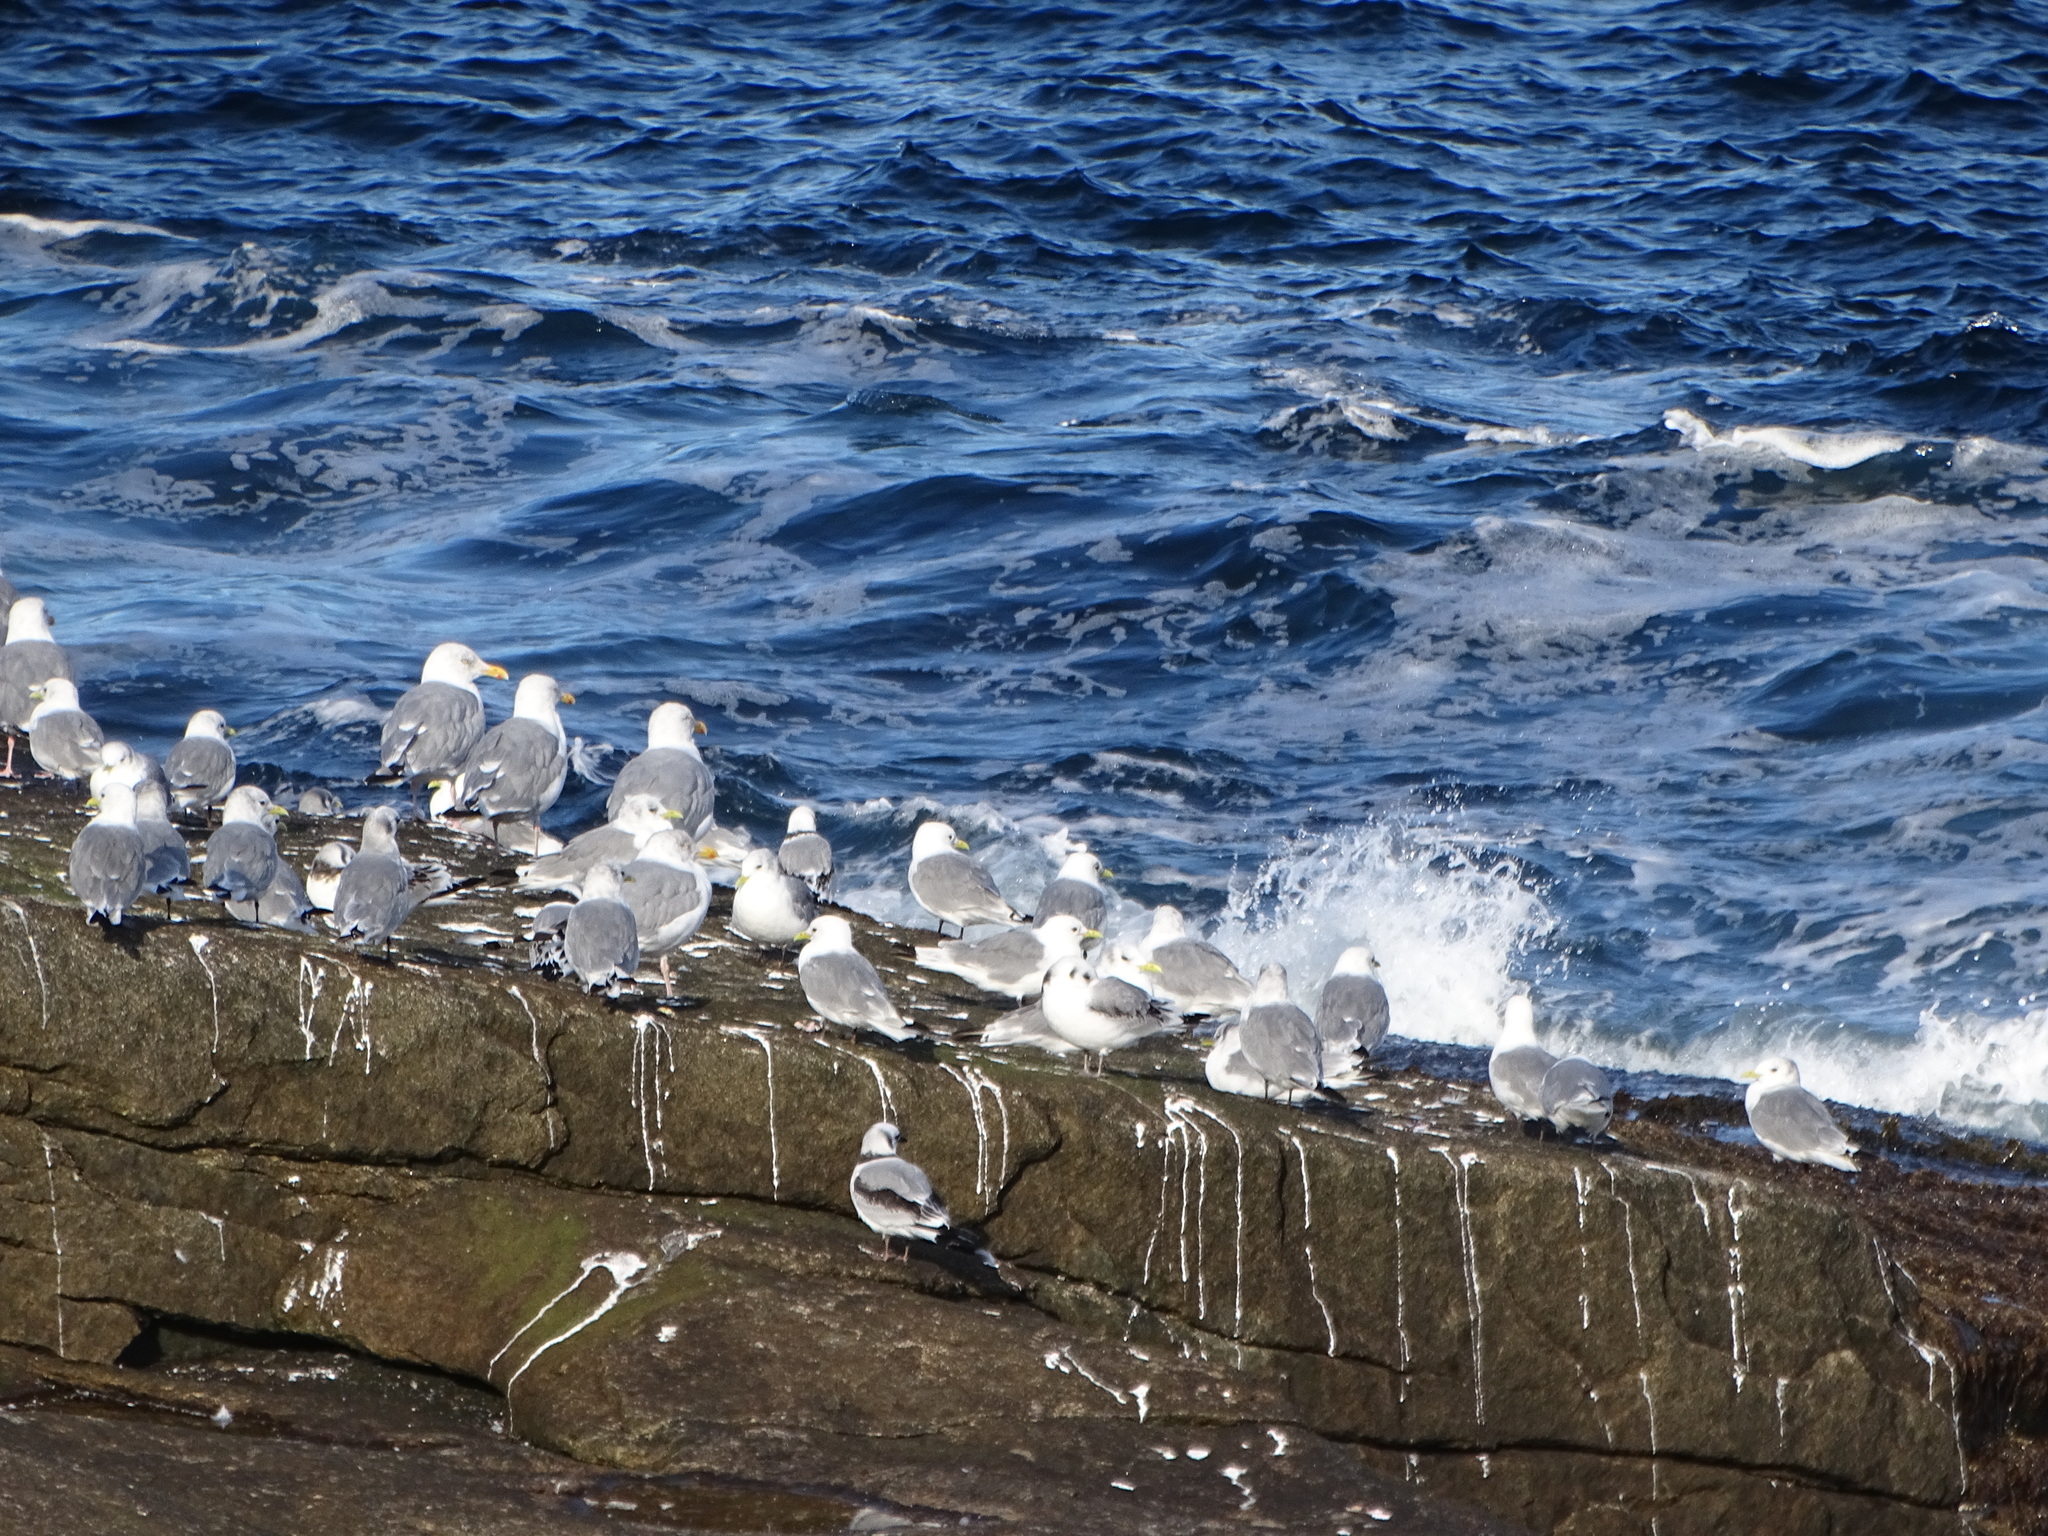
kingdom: Animalia
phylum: Chordata
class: Aves
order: Charadriiformes
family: Laridae
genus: Rissa
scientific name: Rissa tridactyla
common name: Black-legged kittiwake
